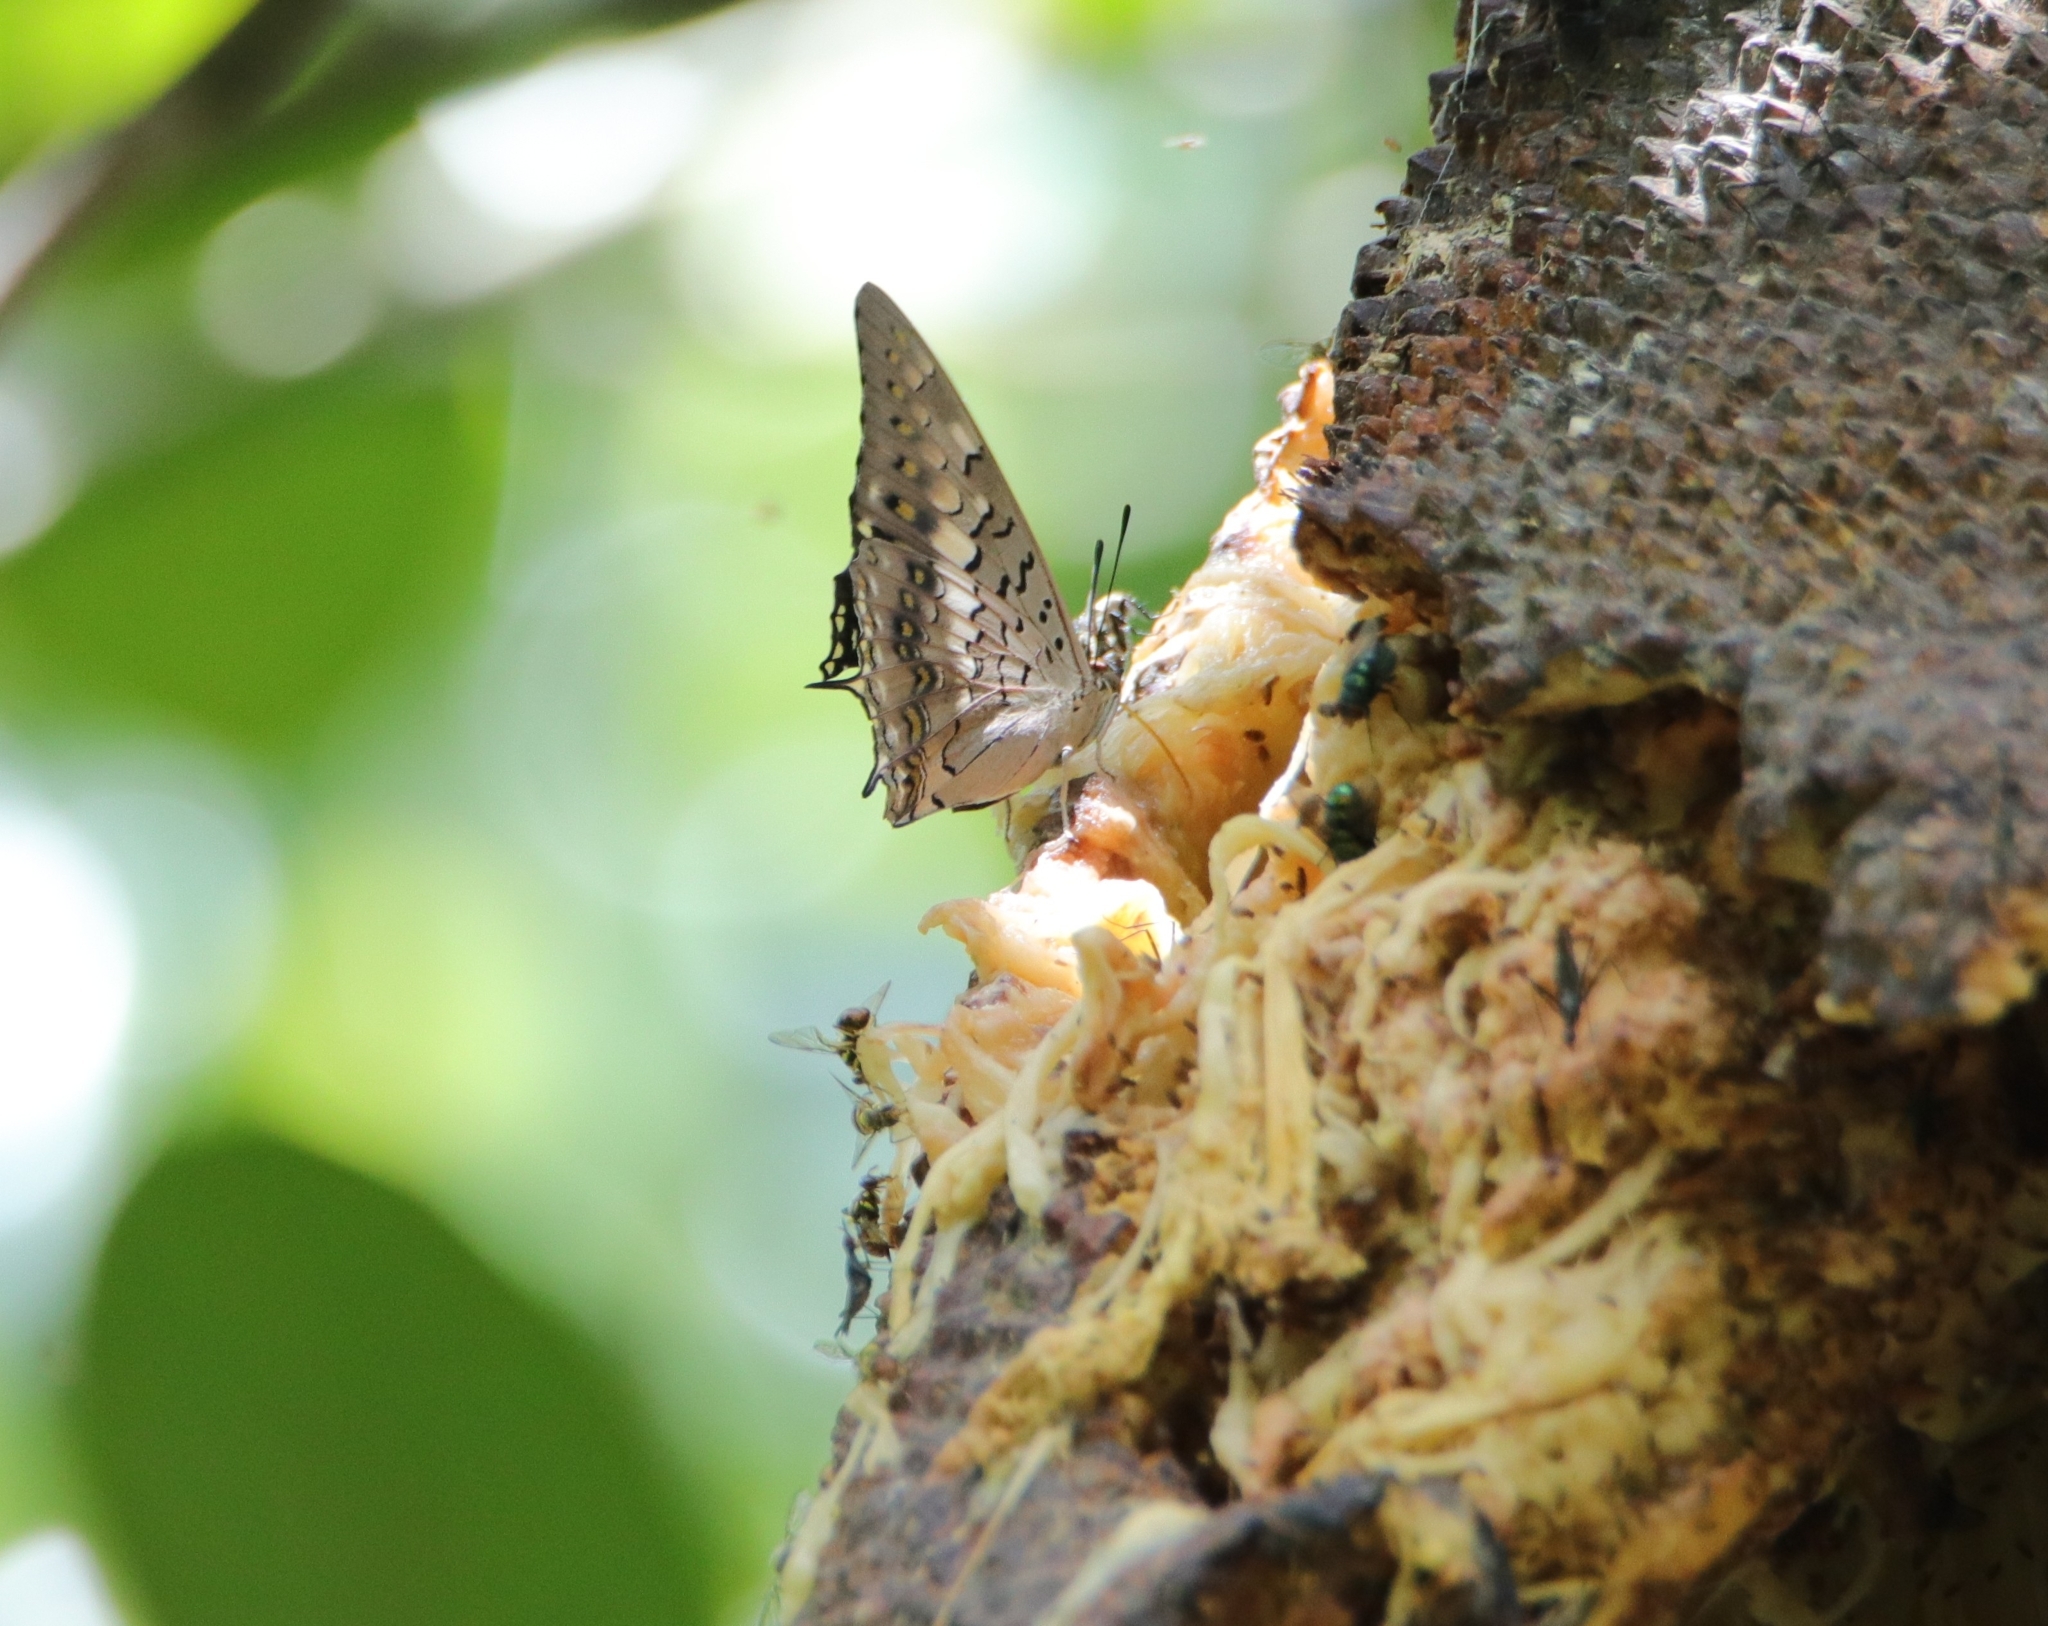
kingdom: Animalia
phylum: Arthropoda
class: Insecta
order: Lepidoptera
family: Nymphalidae
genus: Charaxes
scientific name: Charaxes solon
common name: Black rajah
